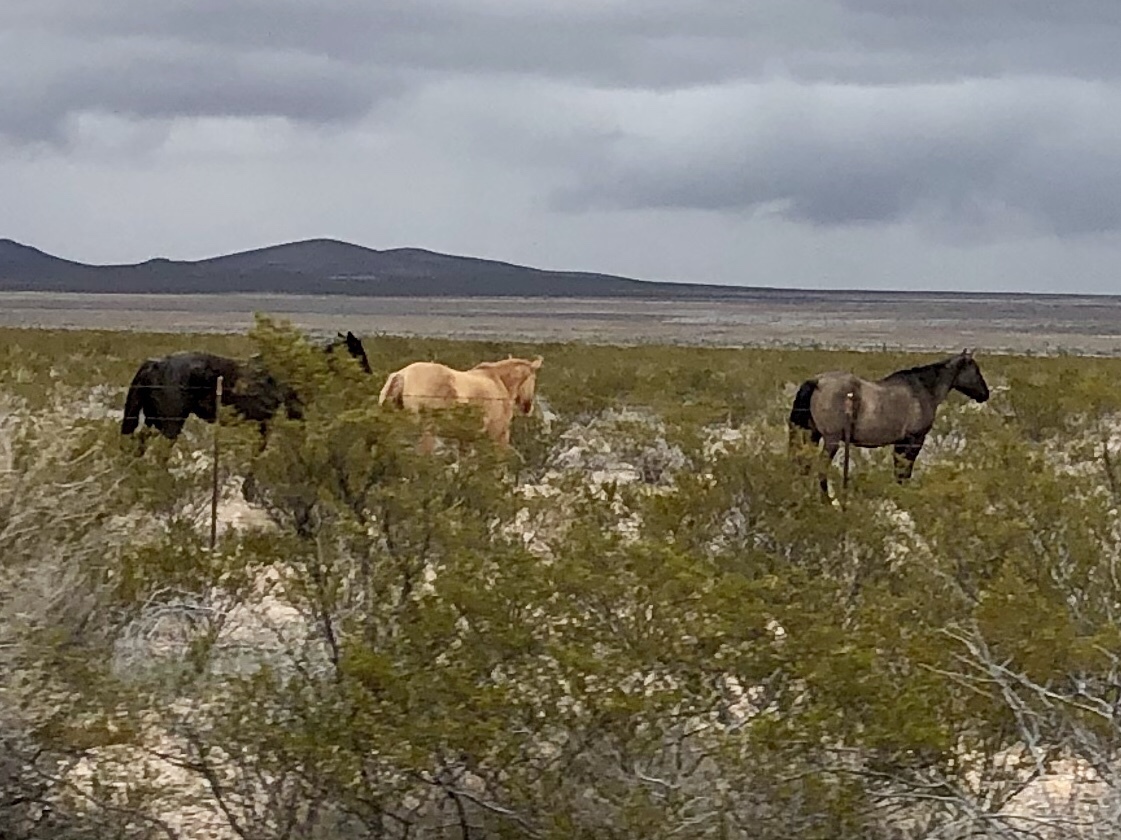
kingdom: Animalia
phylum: Chordata
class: Mammalia
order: Perissodactyla
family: Equidae
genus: Equus
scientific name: Equus caballus
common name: Horse
